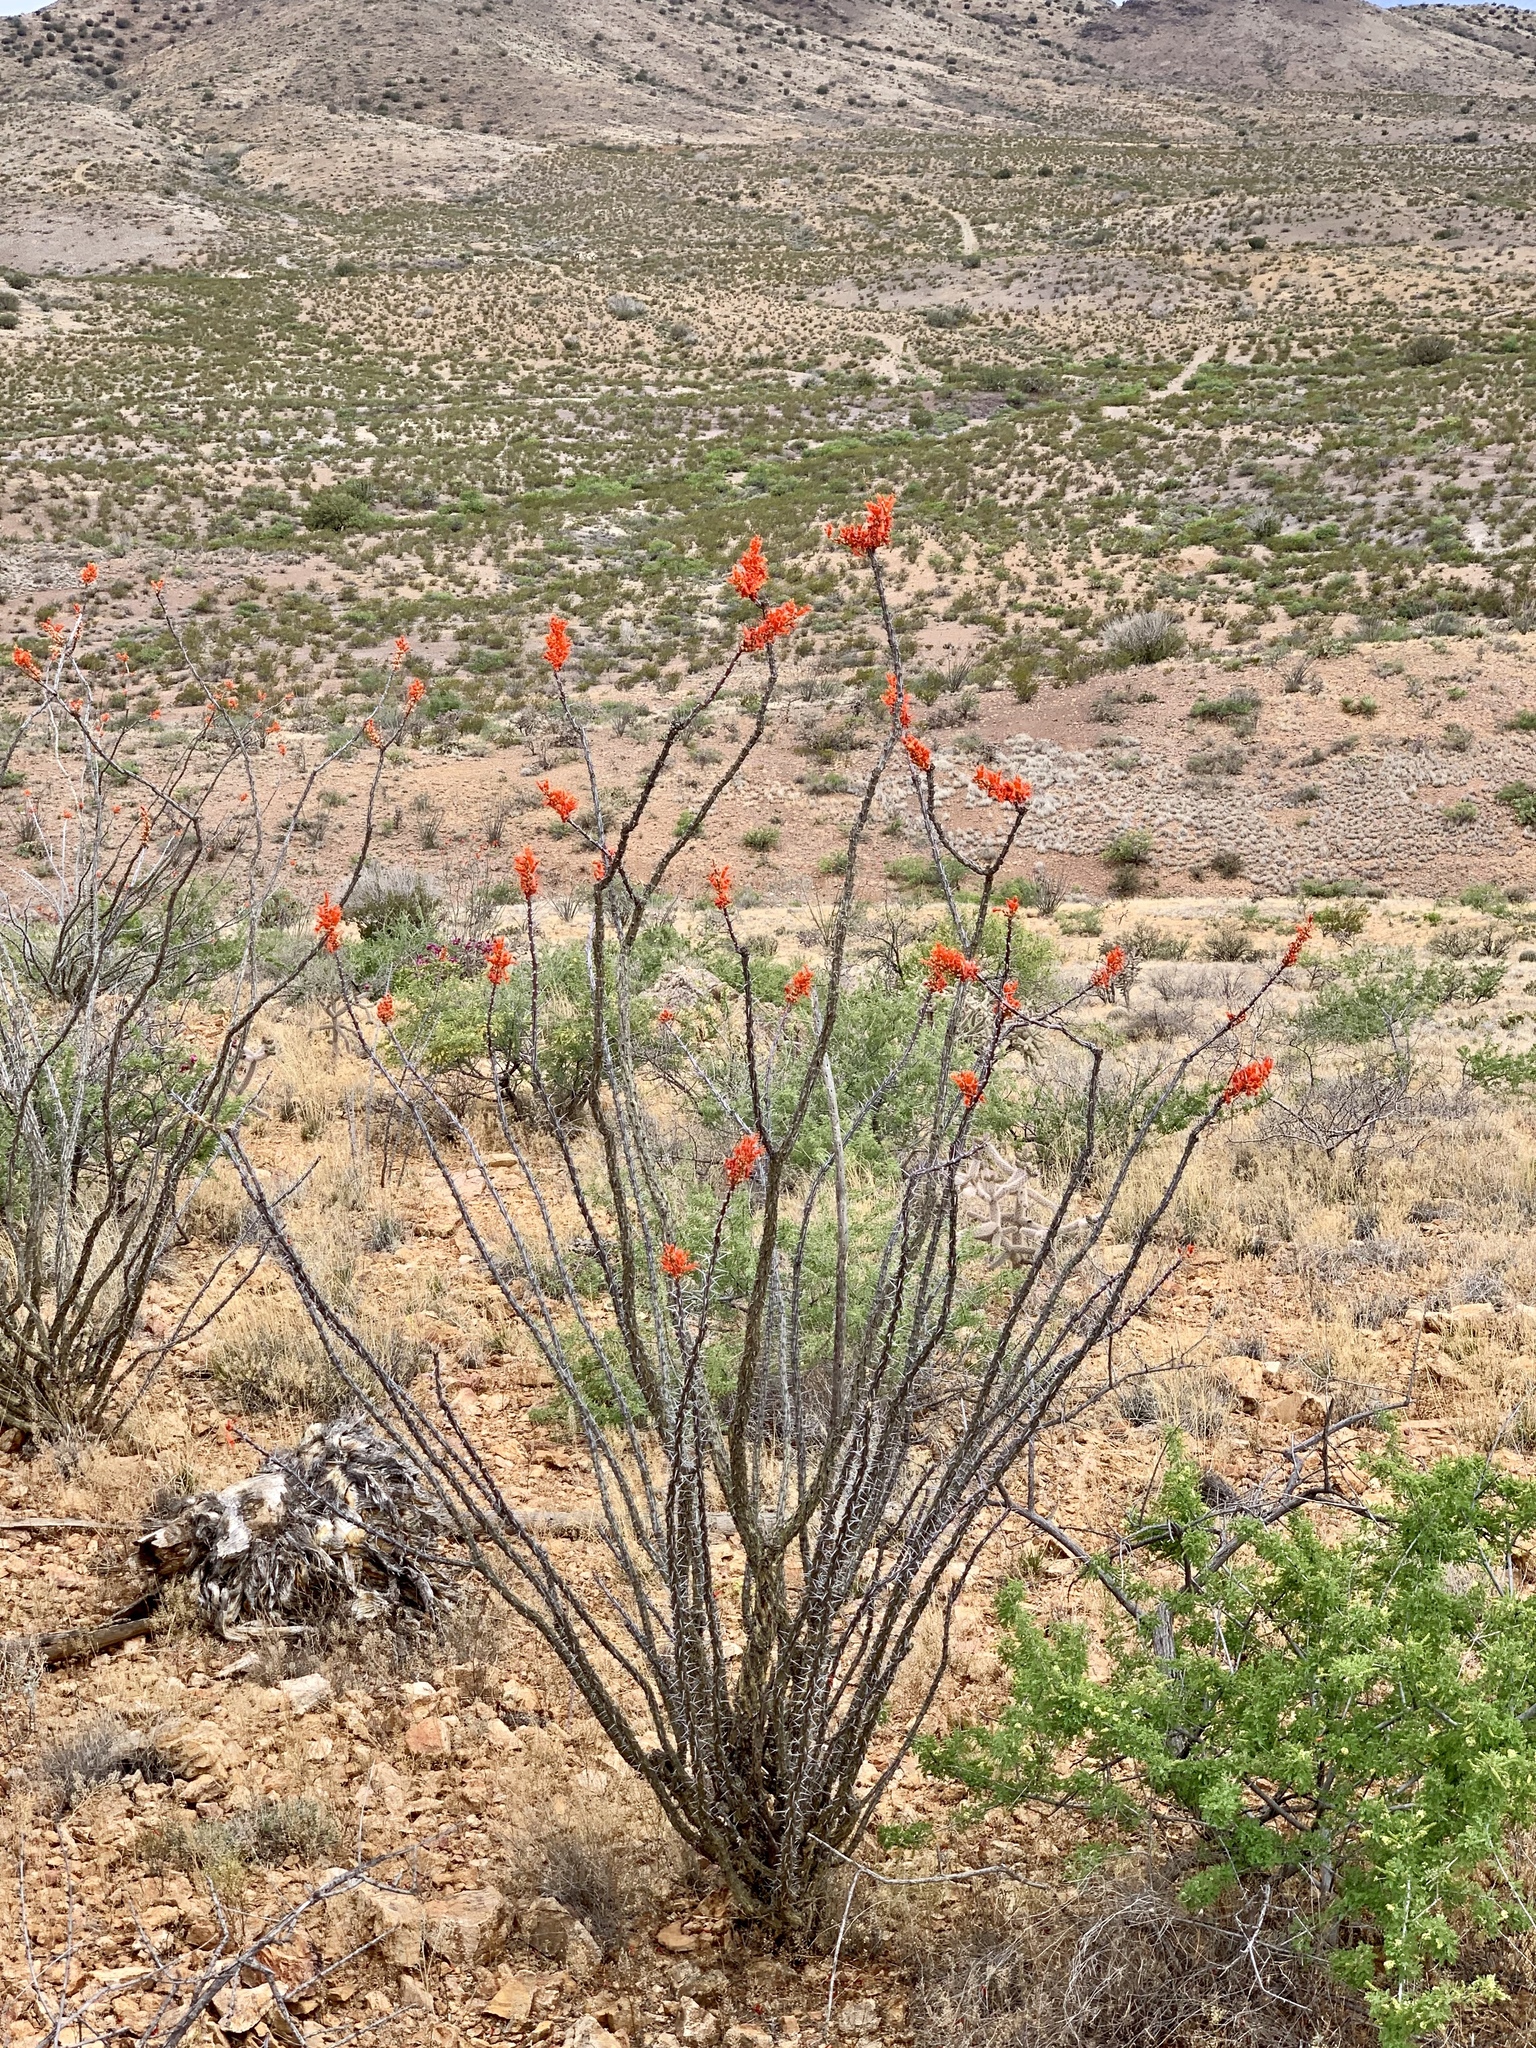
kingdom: Plantae
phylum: Tracheophyta
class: Magnoliopsida
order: Ericales
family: Fouquieriaceae
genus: Fouquieria
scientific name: Fouquieria splendens
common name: Vine-cactus
